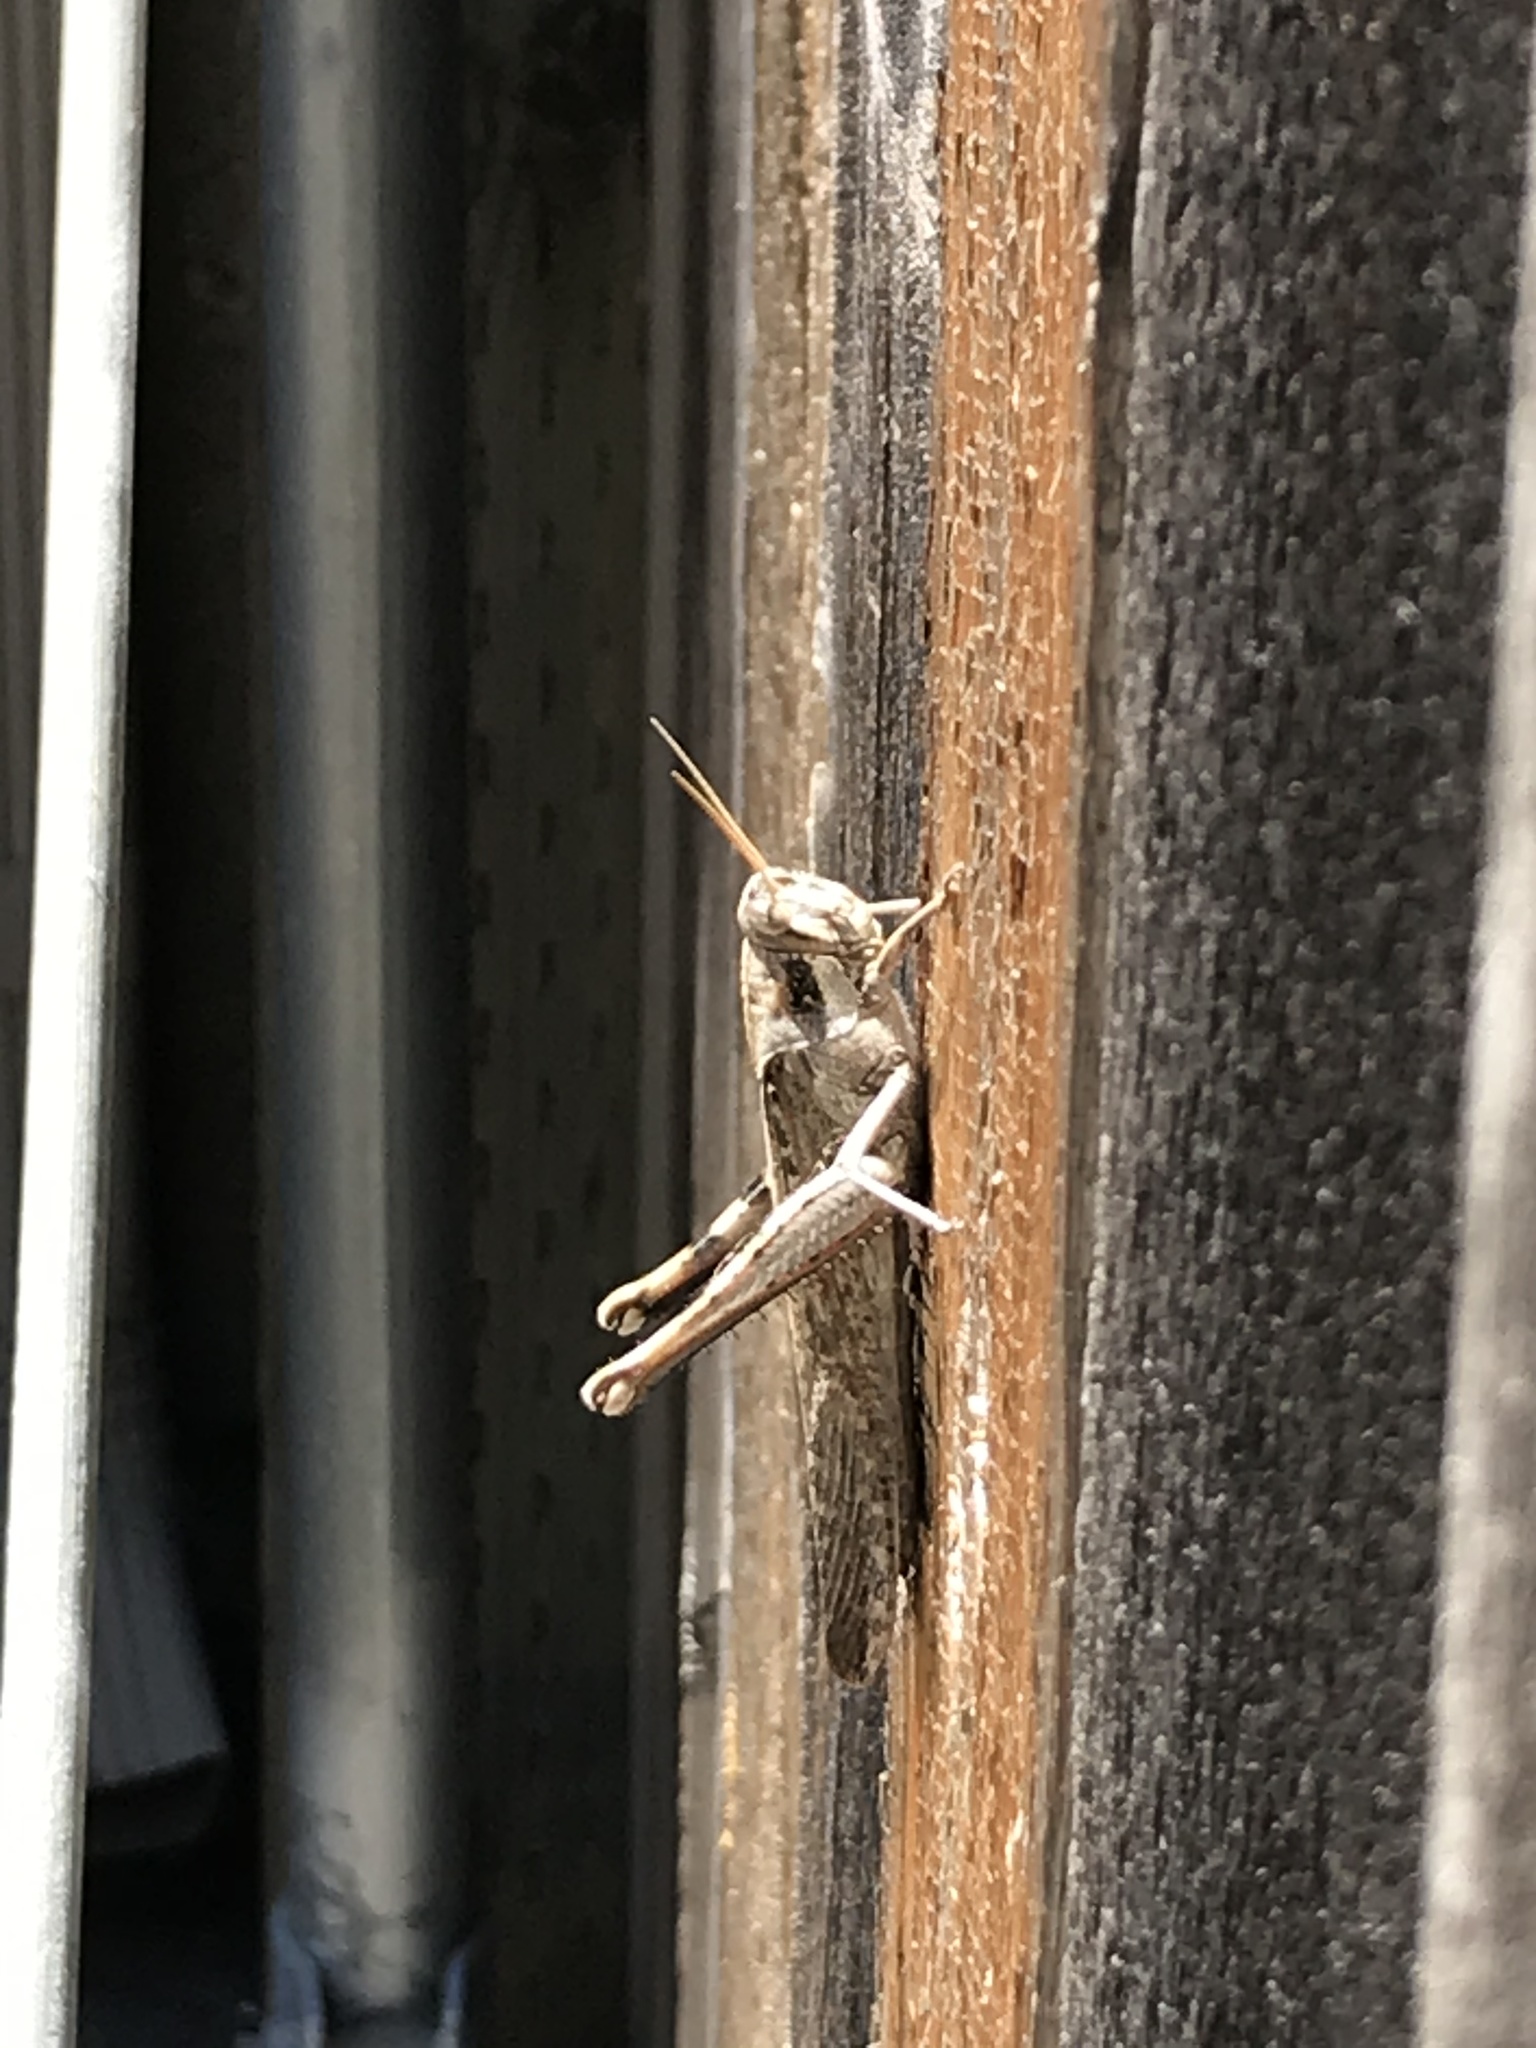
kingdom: Animalia
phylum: Arthropoda
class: Insecta
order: Orthoptera
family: Acrididae
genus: Schistocerca
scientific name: Schistocerca nitens
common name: Vagrant grasshopper
